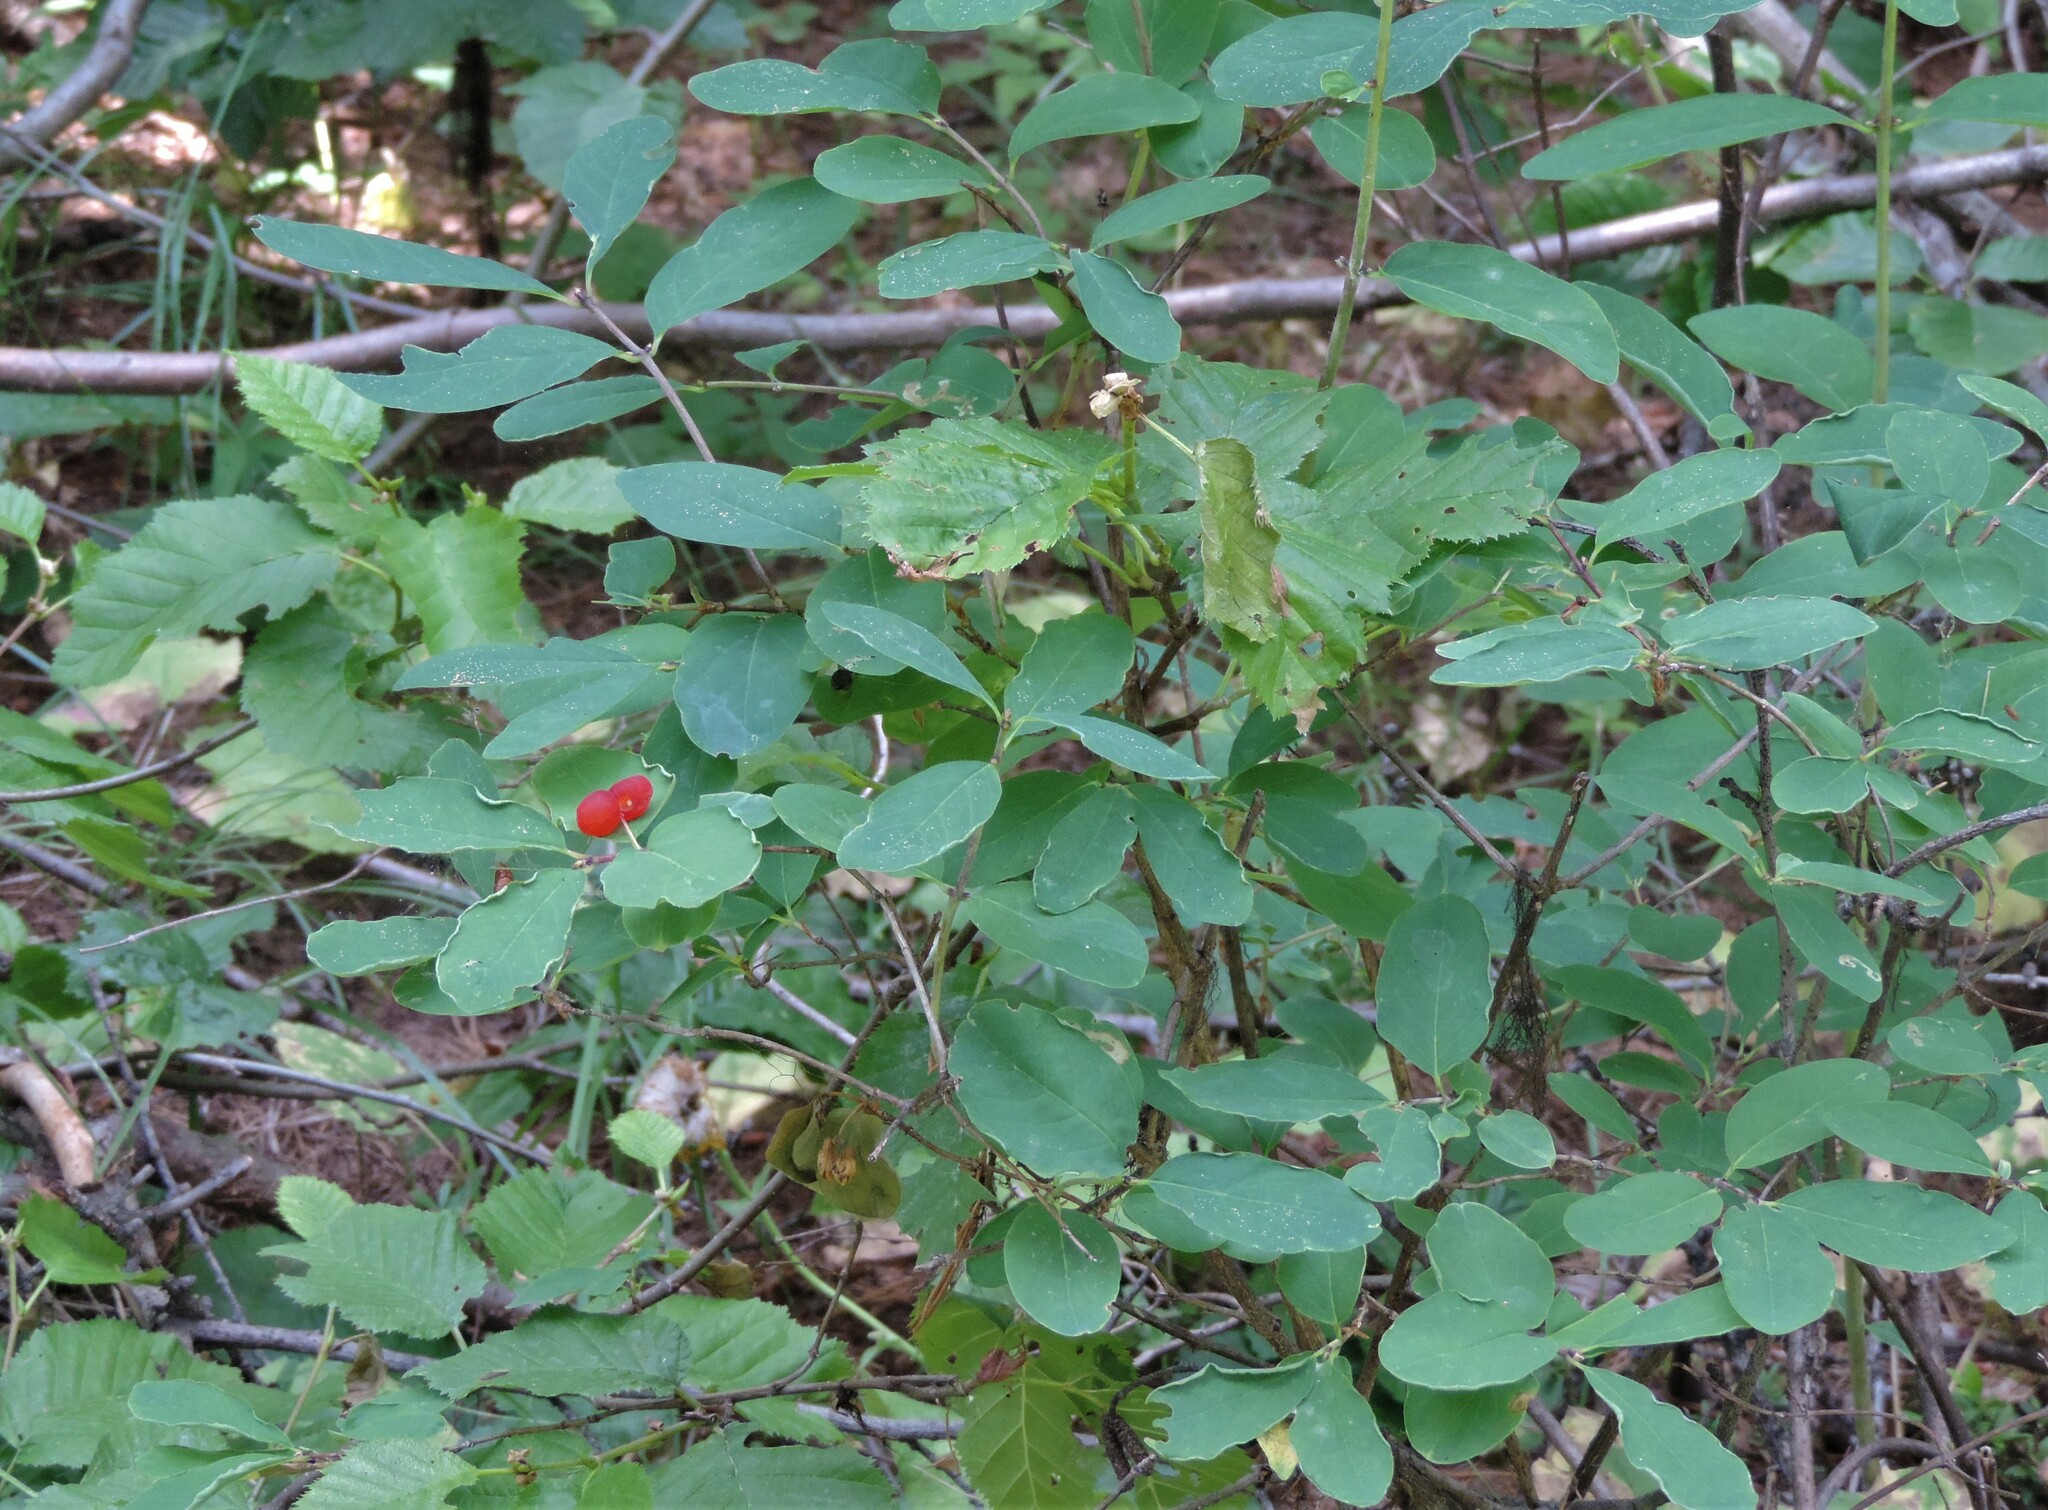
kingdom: Plantae
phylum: Tracheophyta
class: Magnoliopsida
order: Dipsacales
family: Caprifoliaceae
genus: Lonicera
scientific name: Lonicera utahensis
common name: Utah honeysuckle
